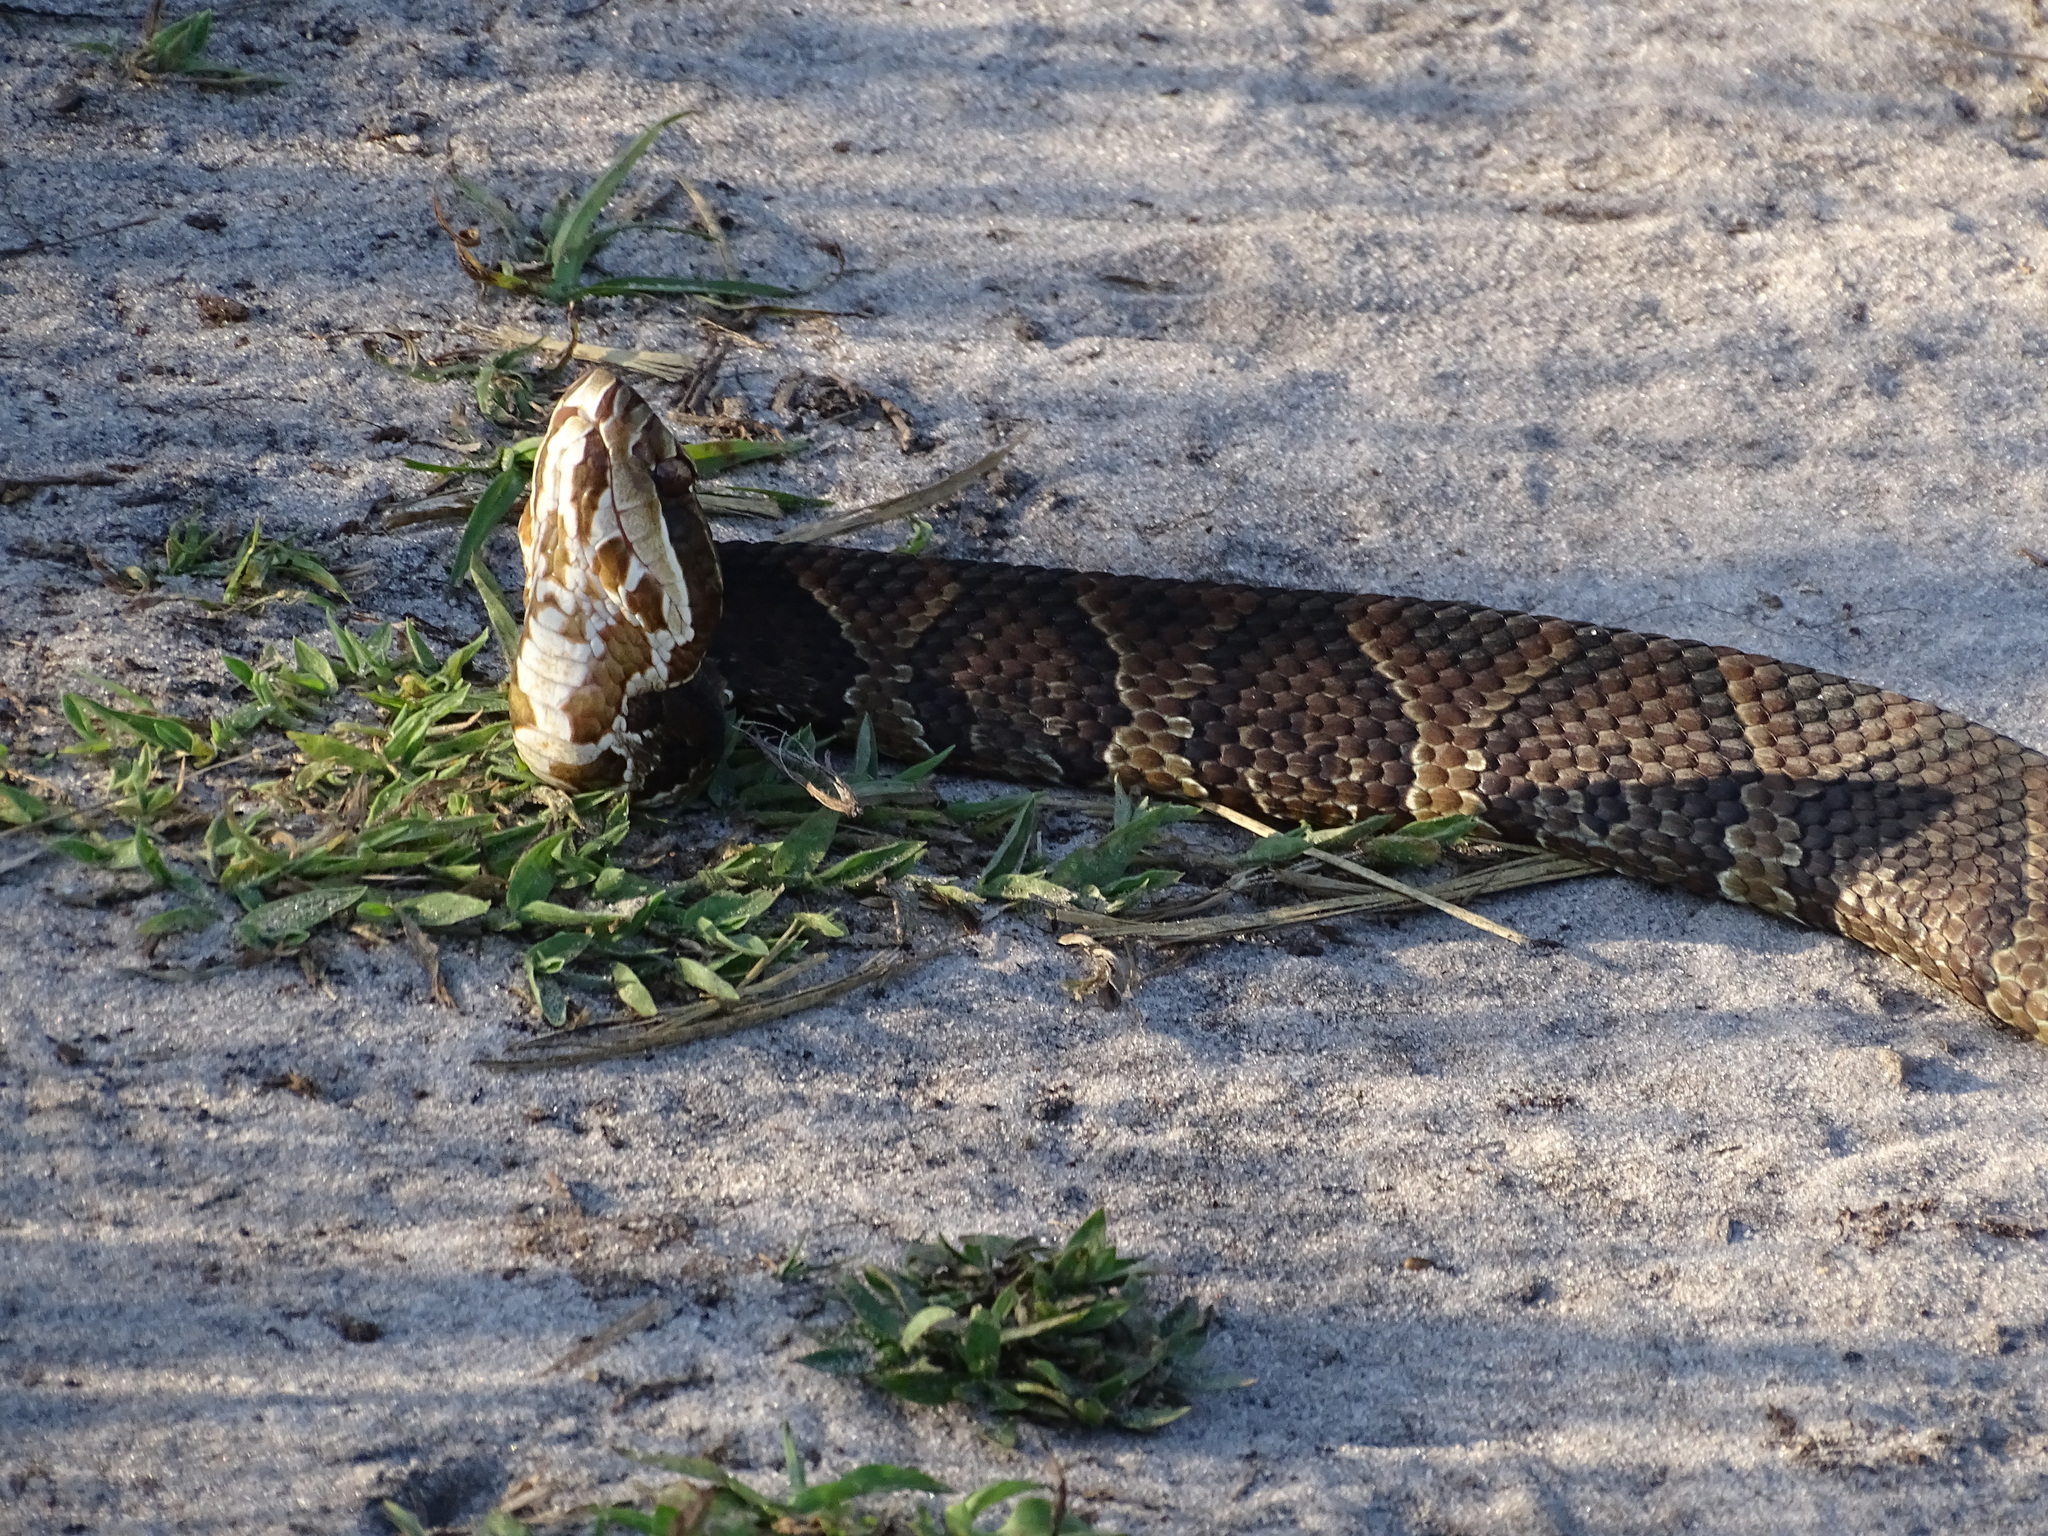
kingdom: Animalia
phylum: Chordata
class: Squamata
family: Viperidae
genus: Agkistrodon
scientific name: Agkistrodon conanti
